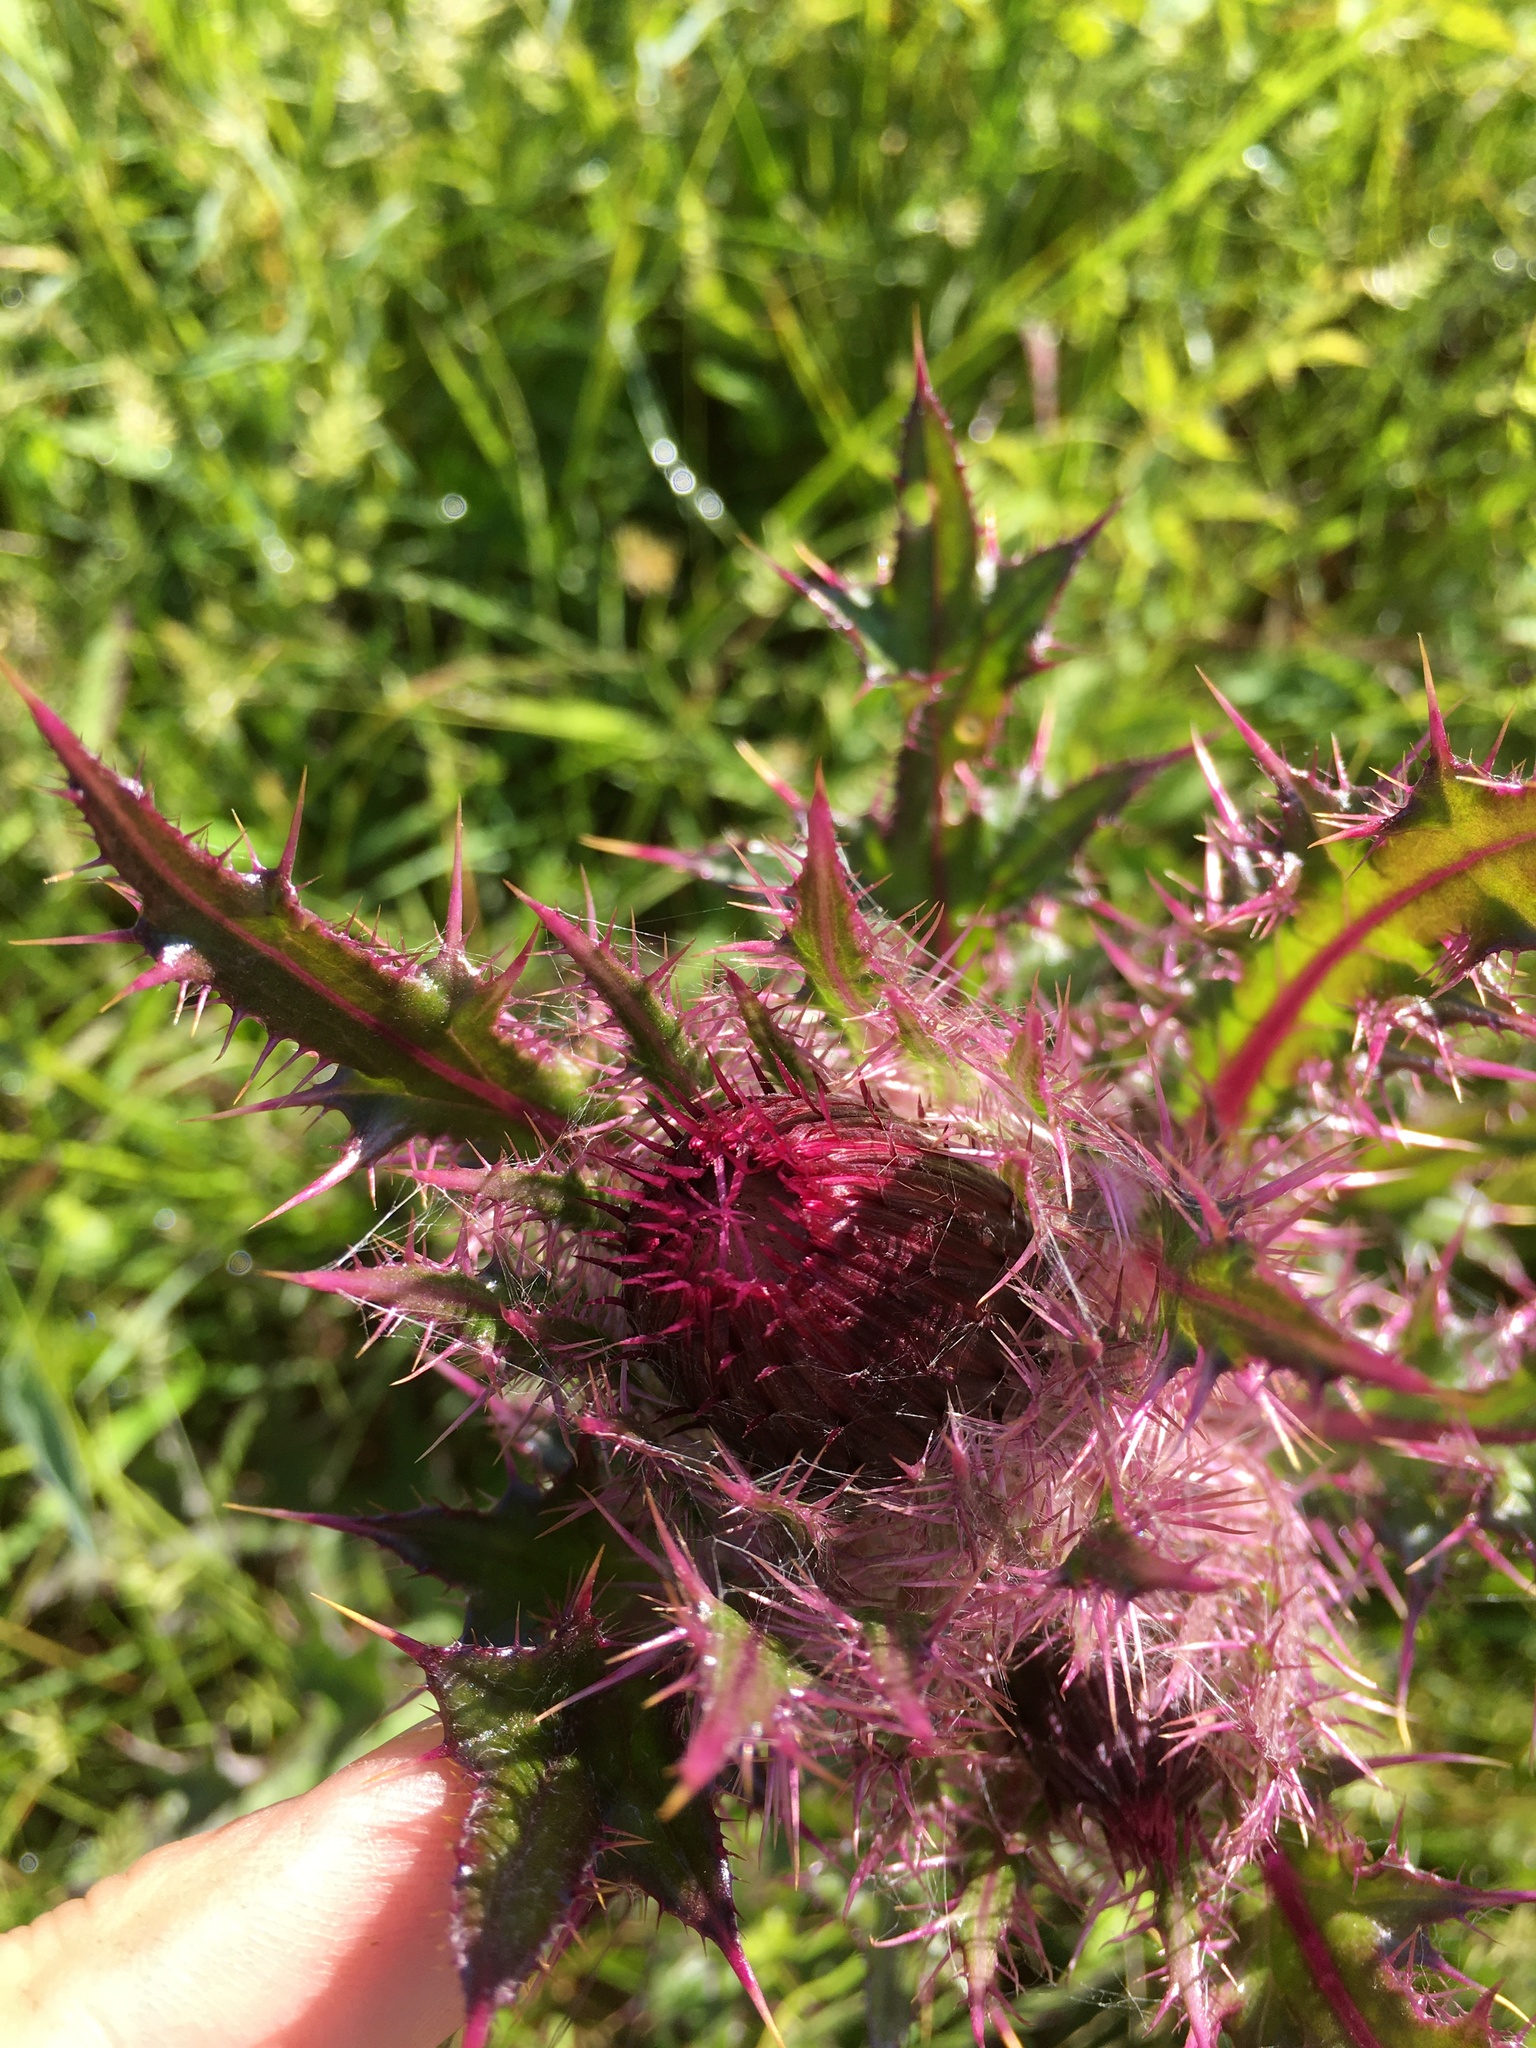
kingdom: Plantae
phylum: Tracheophyta
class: Magnoliopsida
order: Asterales
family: Asteraceae
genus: Cirsium
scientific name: Cirsium horridulum
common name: Bristly thistle
